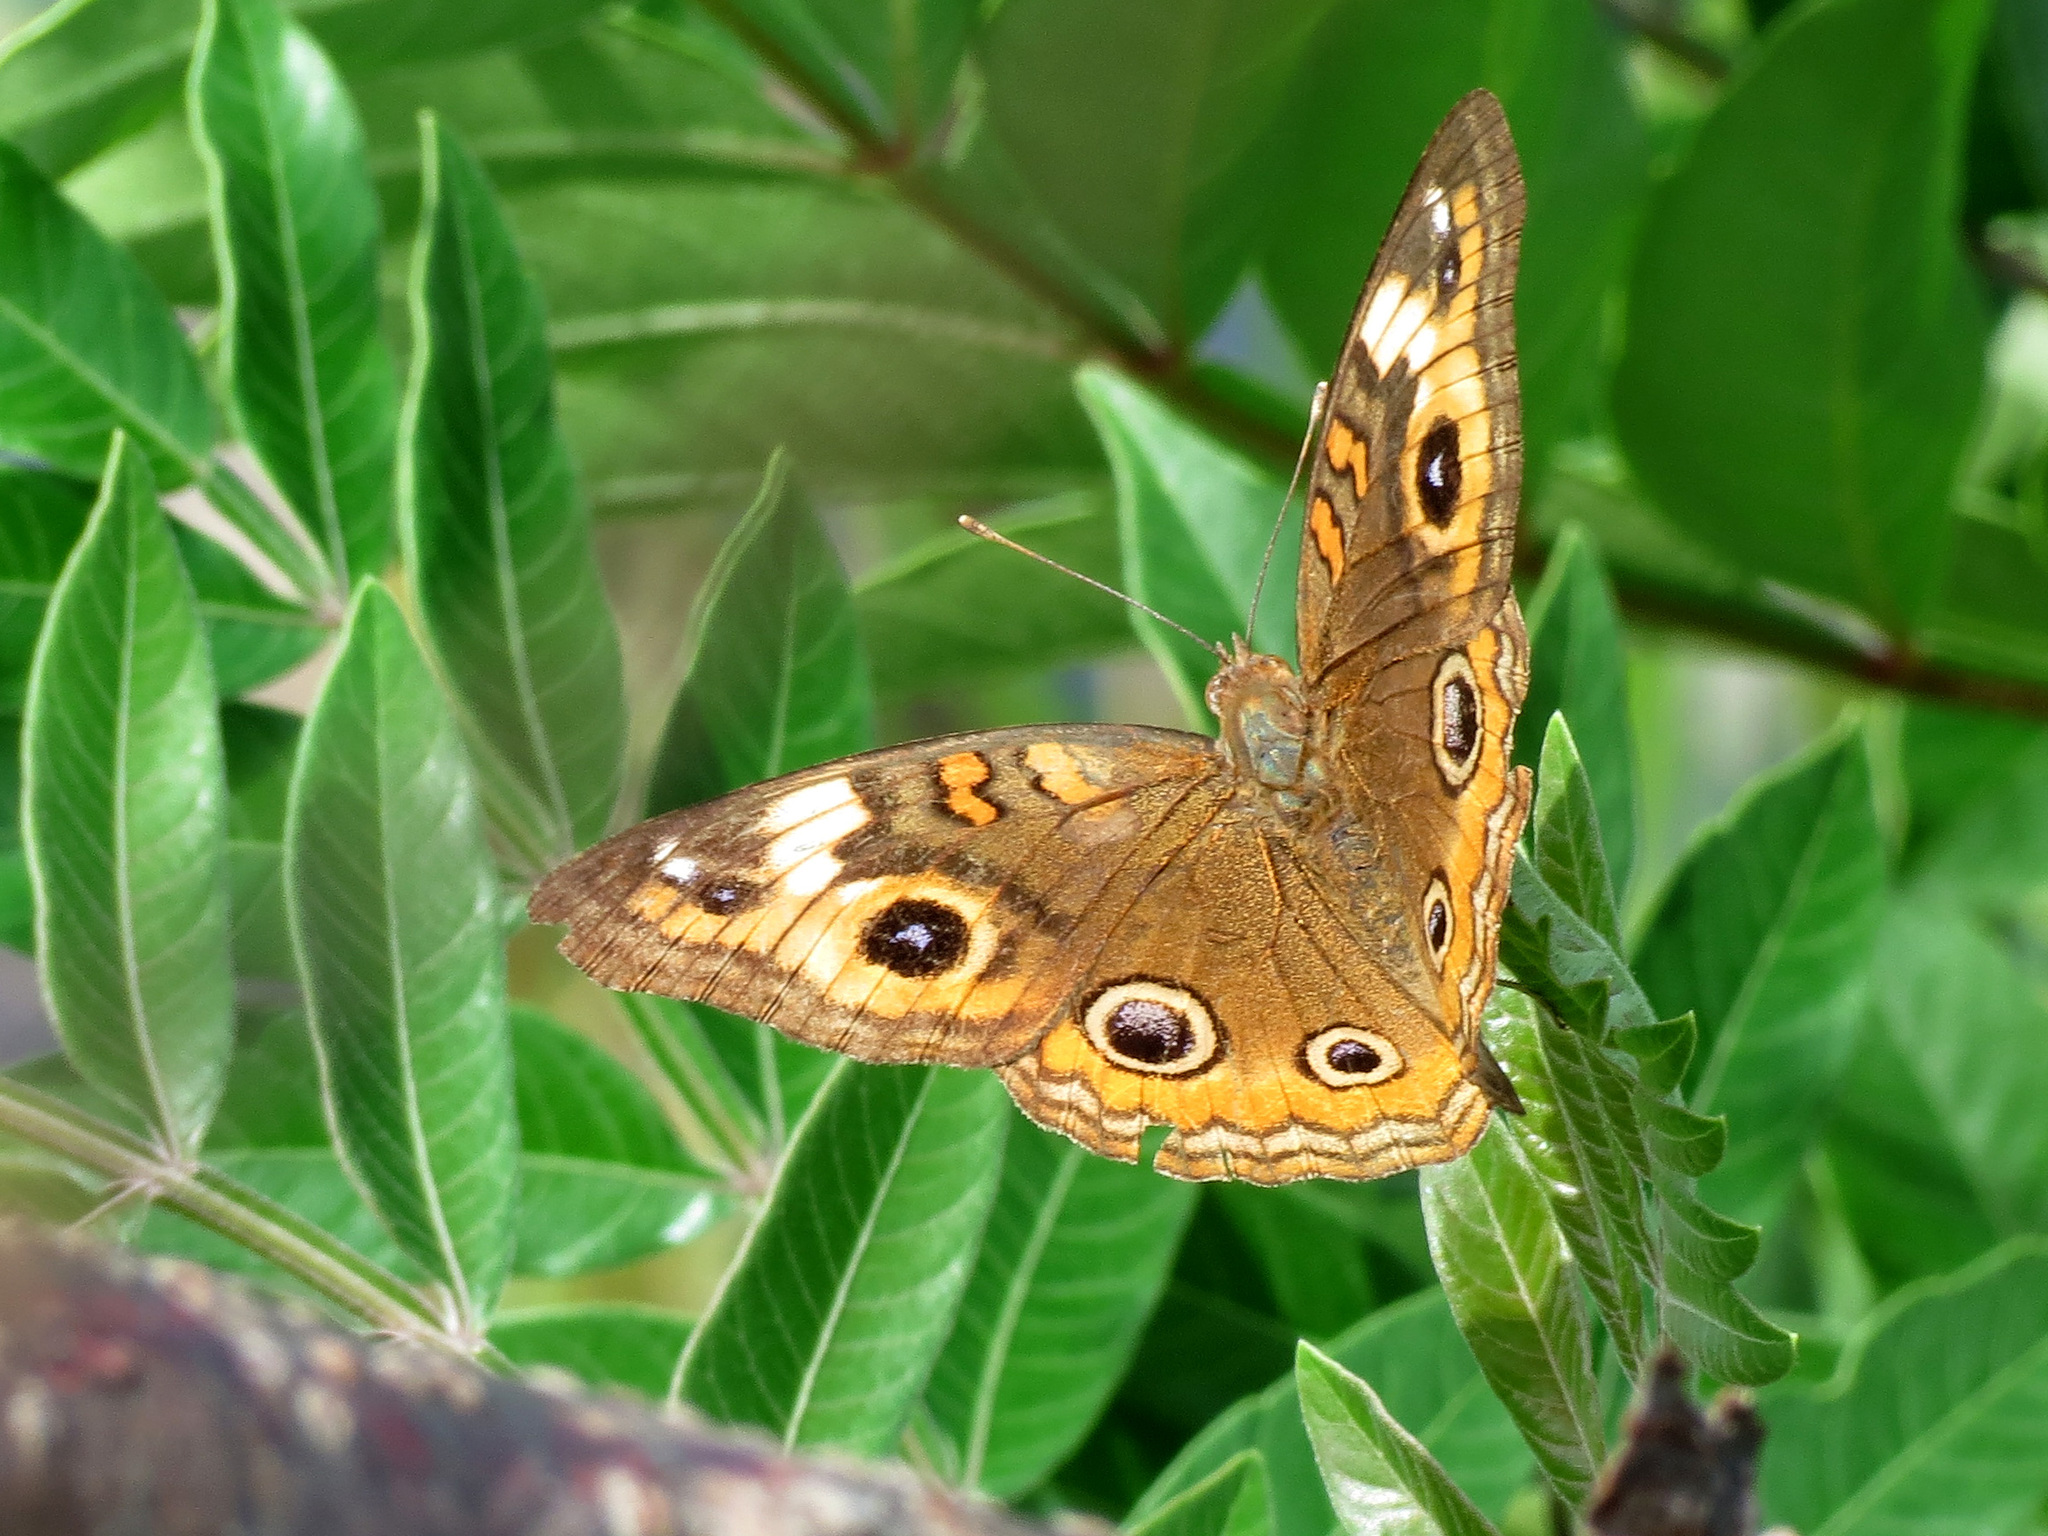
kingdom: Animalia
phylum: Arthropoda
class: Insecta
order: Lepidoptera
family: Nymphalidae
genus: Junonia
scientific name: Junonia neildi
